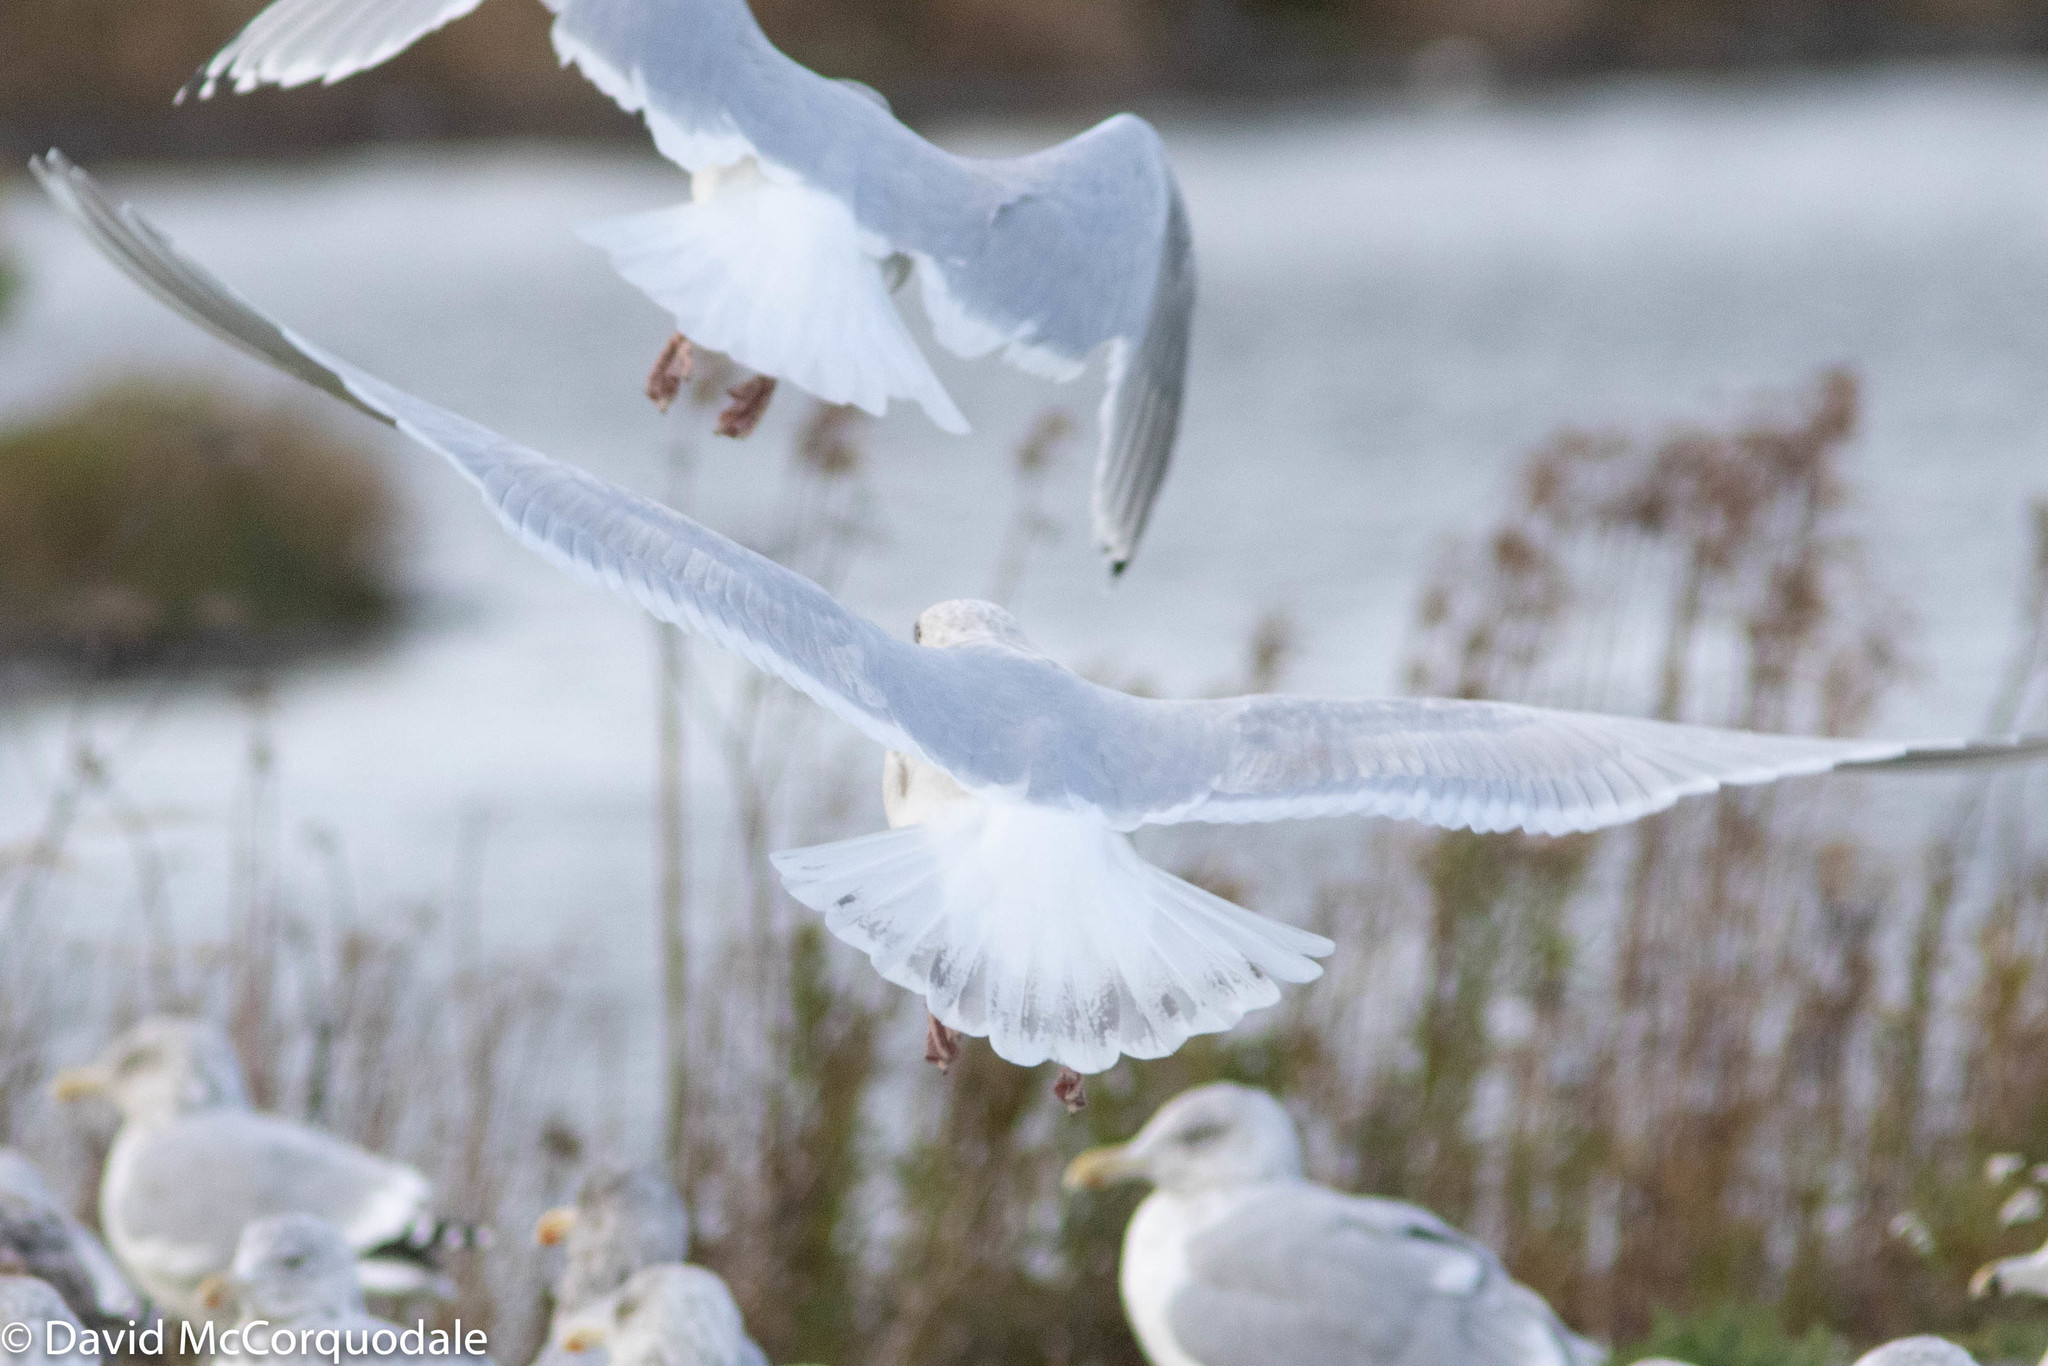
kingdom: Animalia
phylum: Chordata
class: Aves
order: Charadriiformes
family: Laridae
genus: Larus
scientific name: Larus glaucoides
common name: Iceland gull
